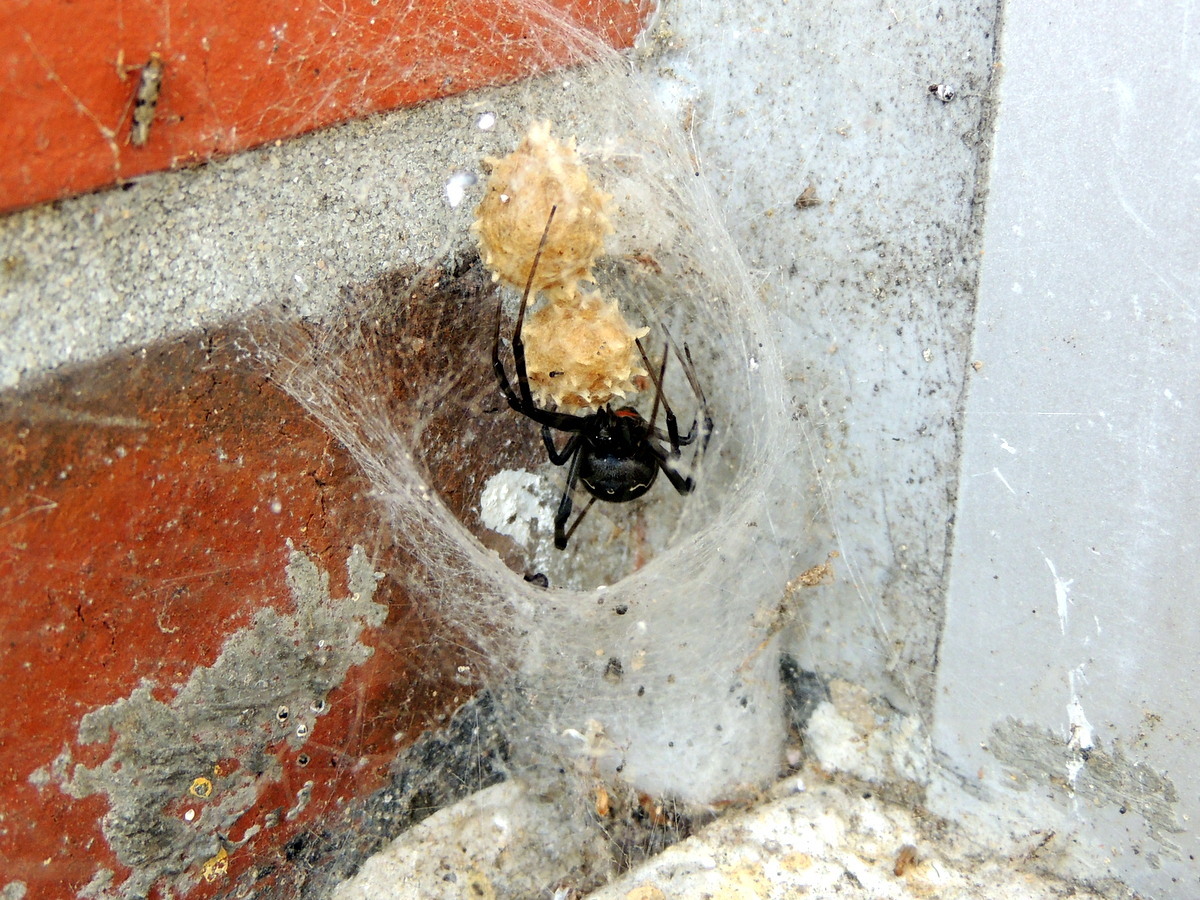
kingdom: Animalia
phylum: Arthropoda
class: Arachnida
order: Araneae
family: Theridiidae
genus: Latrodectus
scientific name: Latrodectus geometricus
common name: Brown widow spider
